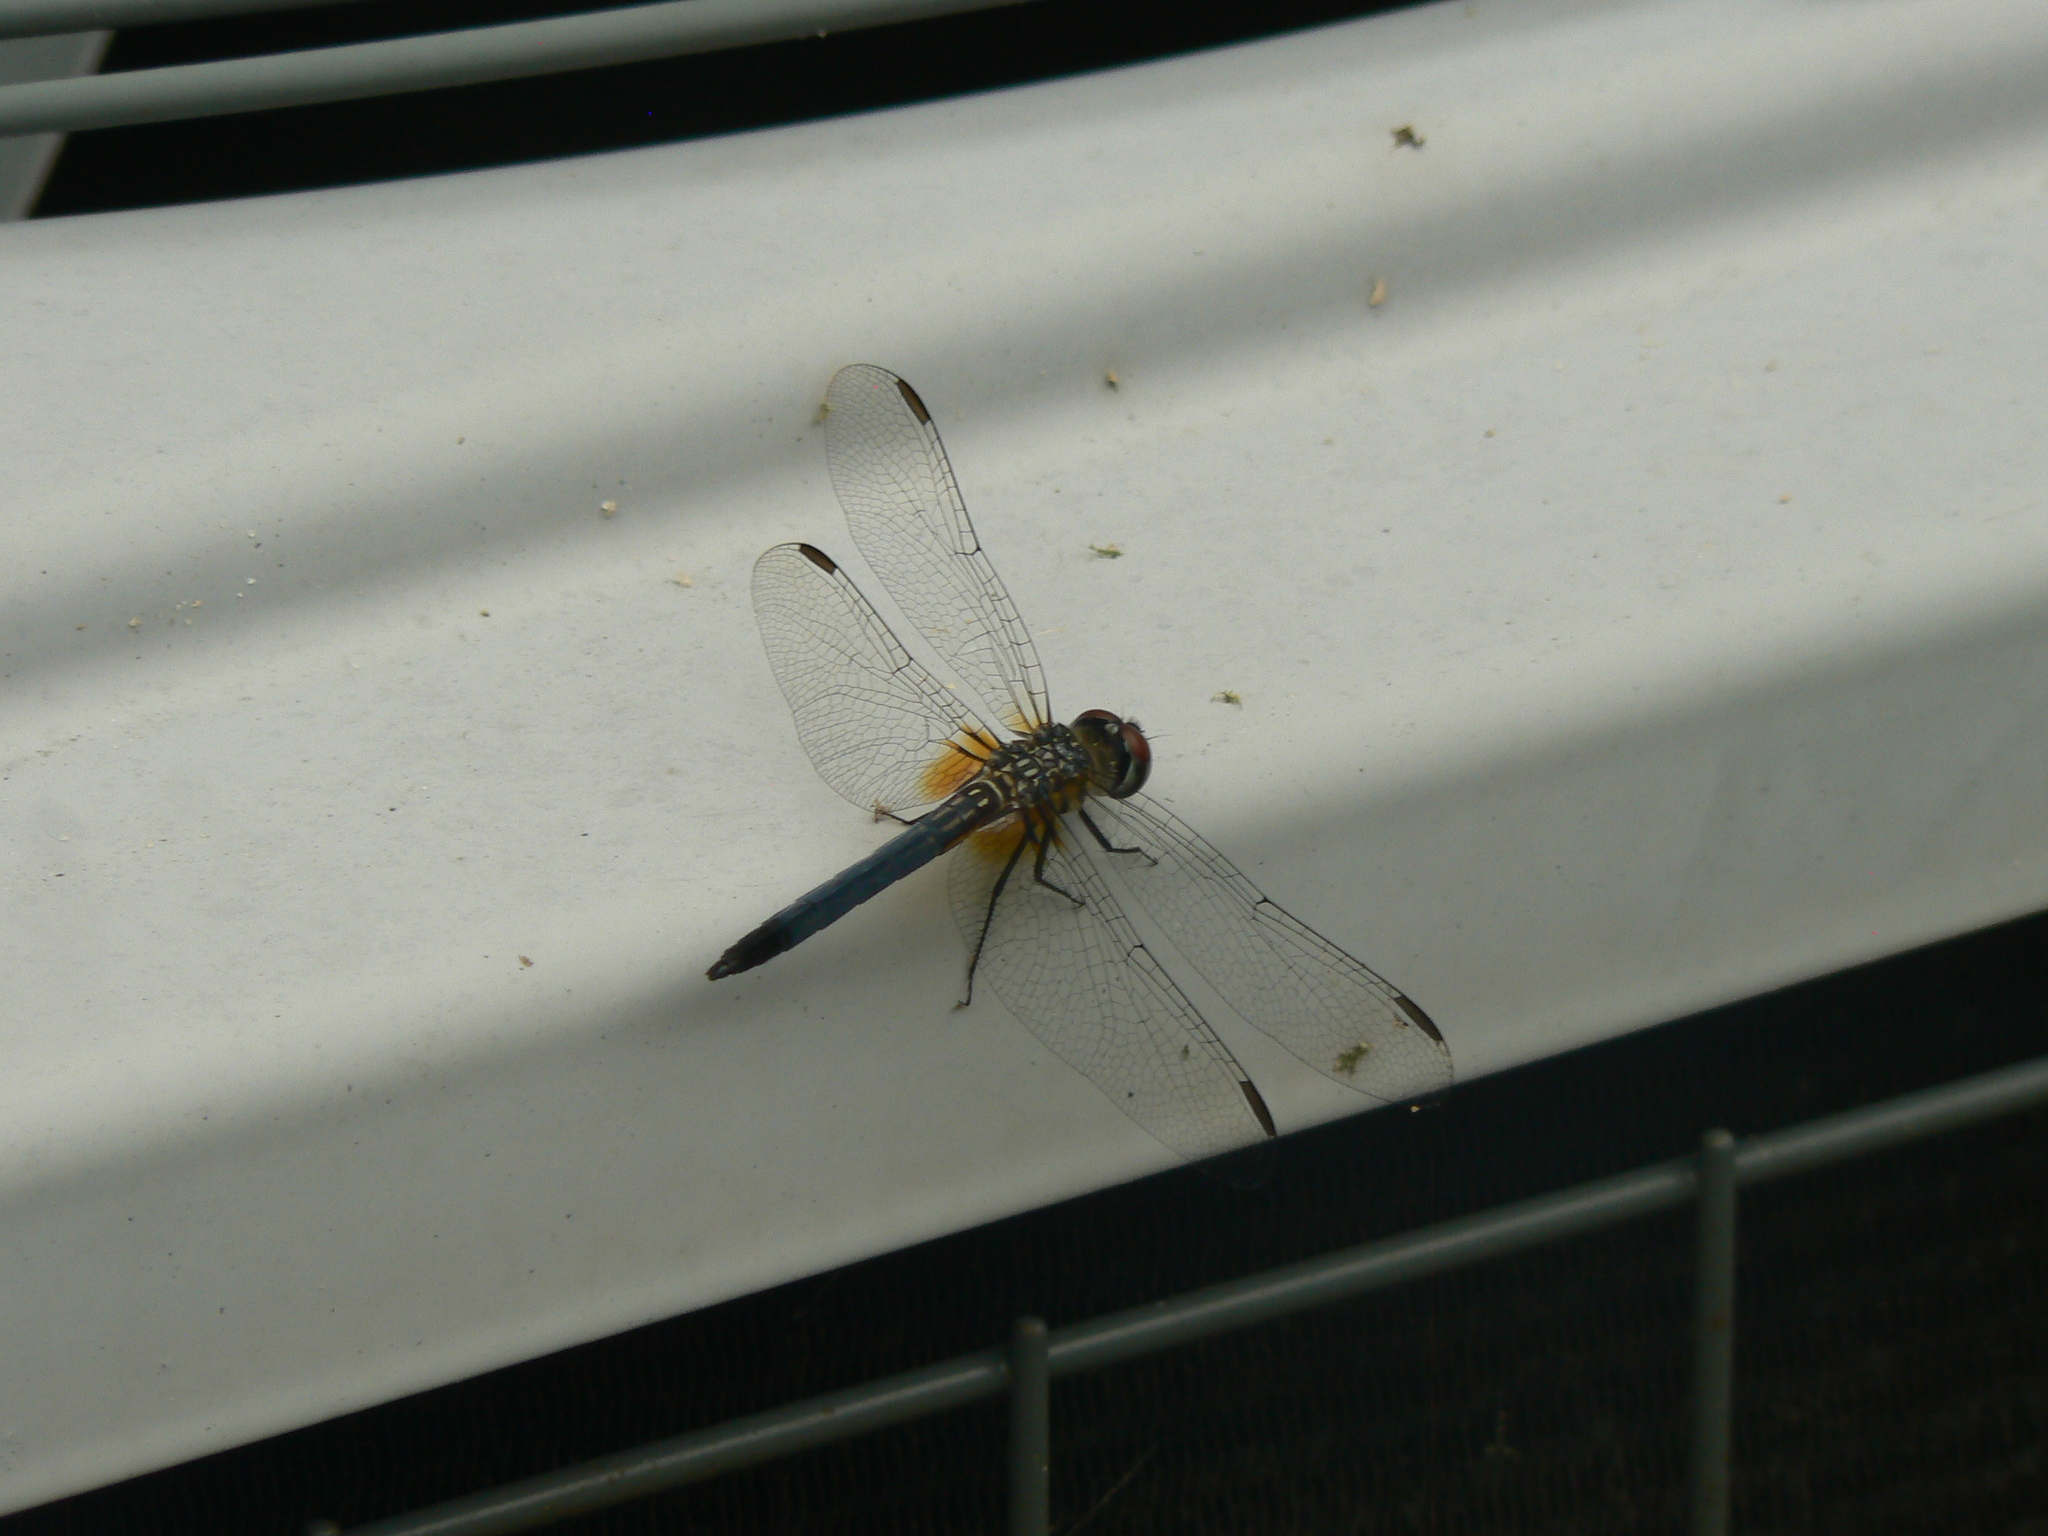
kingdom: Animalia
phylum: Arthropoda
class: Insecta
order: Odonata
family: Libellulidae
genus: Pachydiplax
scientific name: Pachydiplax longipennis
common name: Blue dasher
